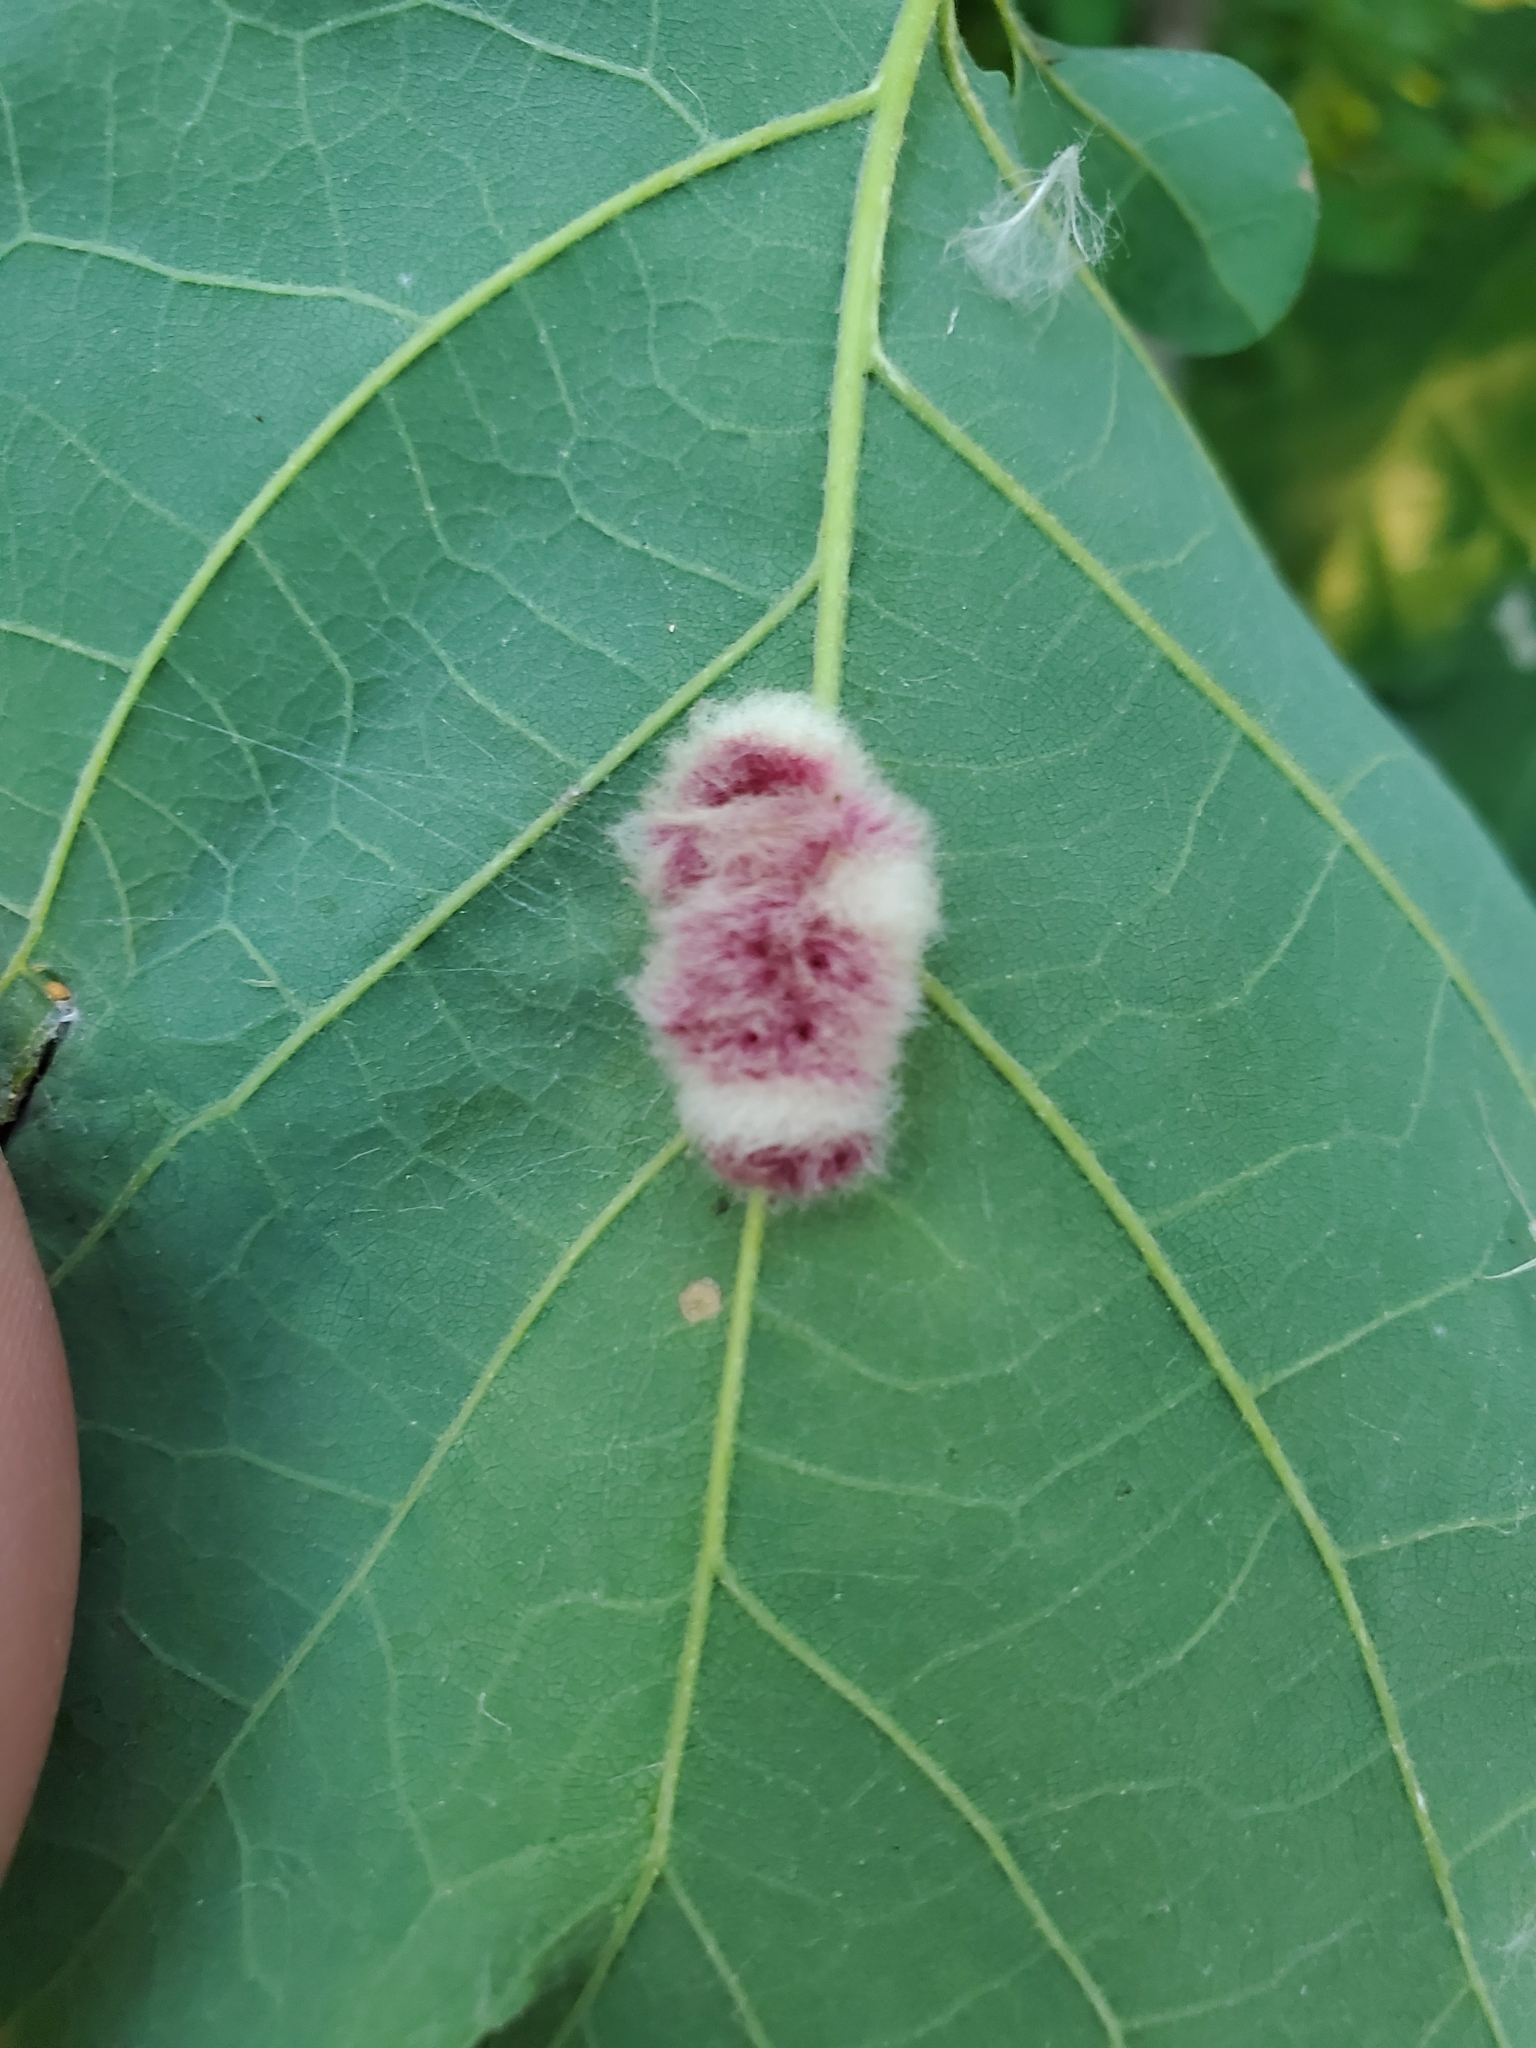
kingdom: Animalia
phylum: Arthropoda
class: Insecta
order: Hymenoptera
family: Cynipidae
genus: Andricus
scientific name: Andricus Druon ignotum
